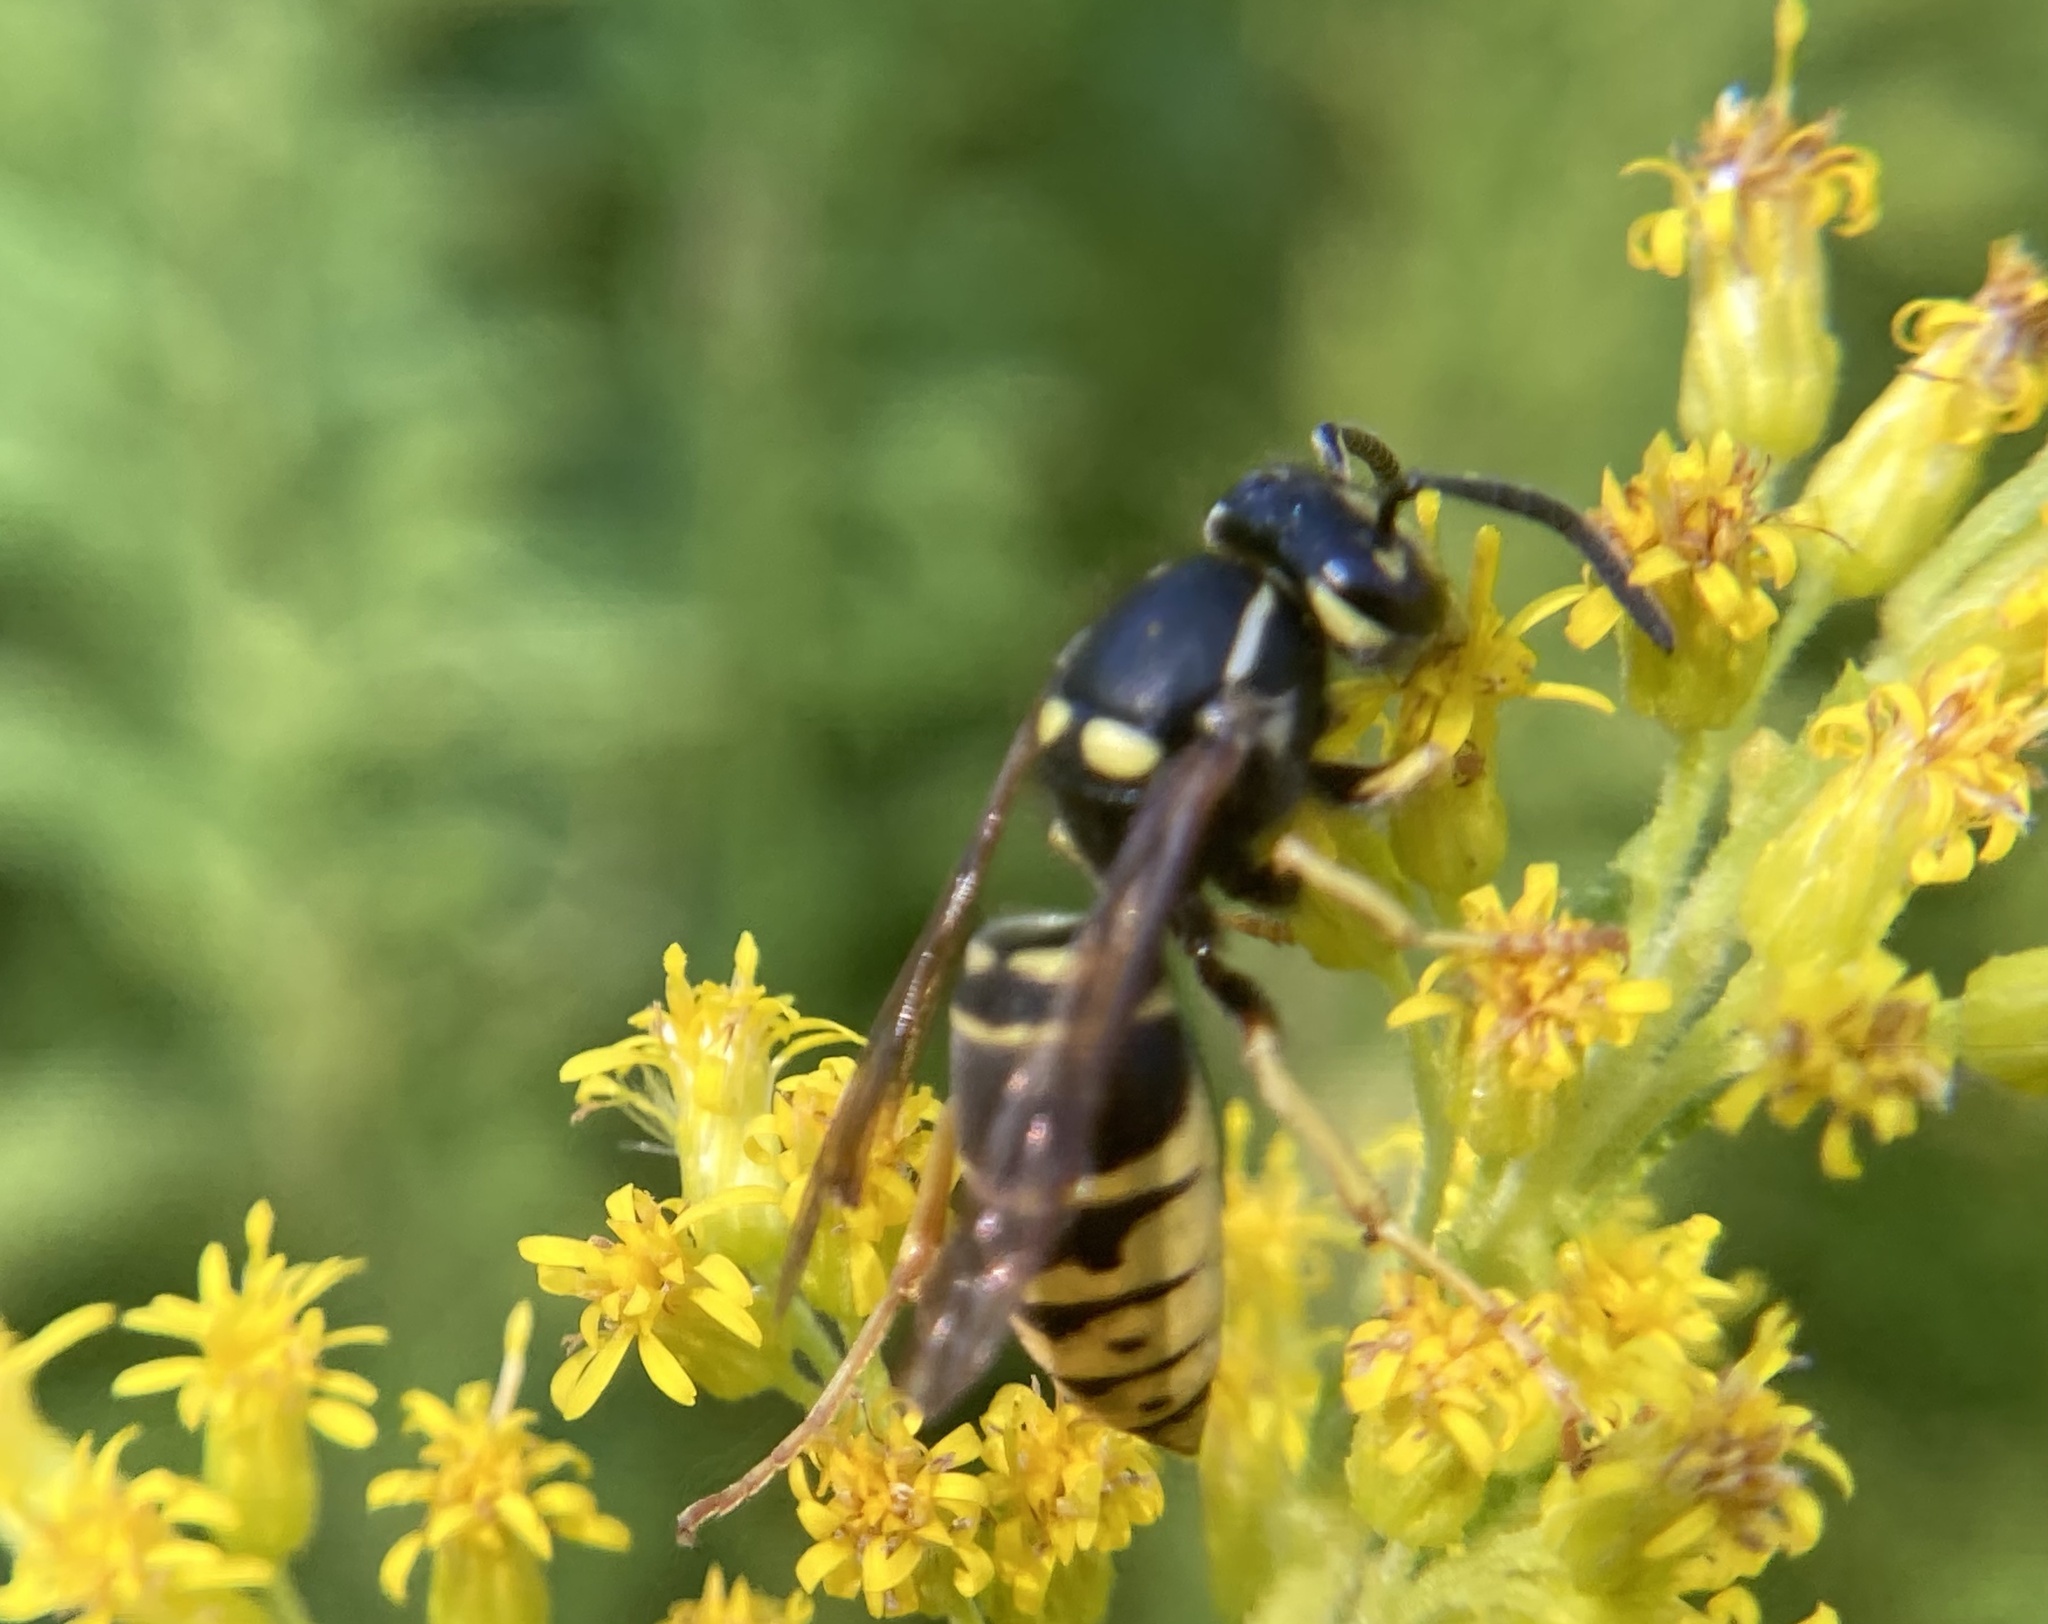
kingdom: Animalia
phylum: Arthropoda
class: Insecta
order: Hymenoptera
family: Vespidae
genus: Vespula
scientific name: Vespula vidua
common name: Widow yellowjacket
